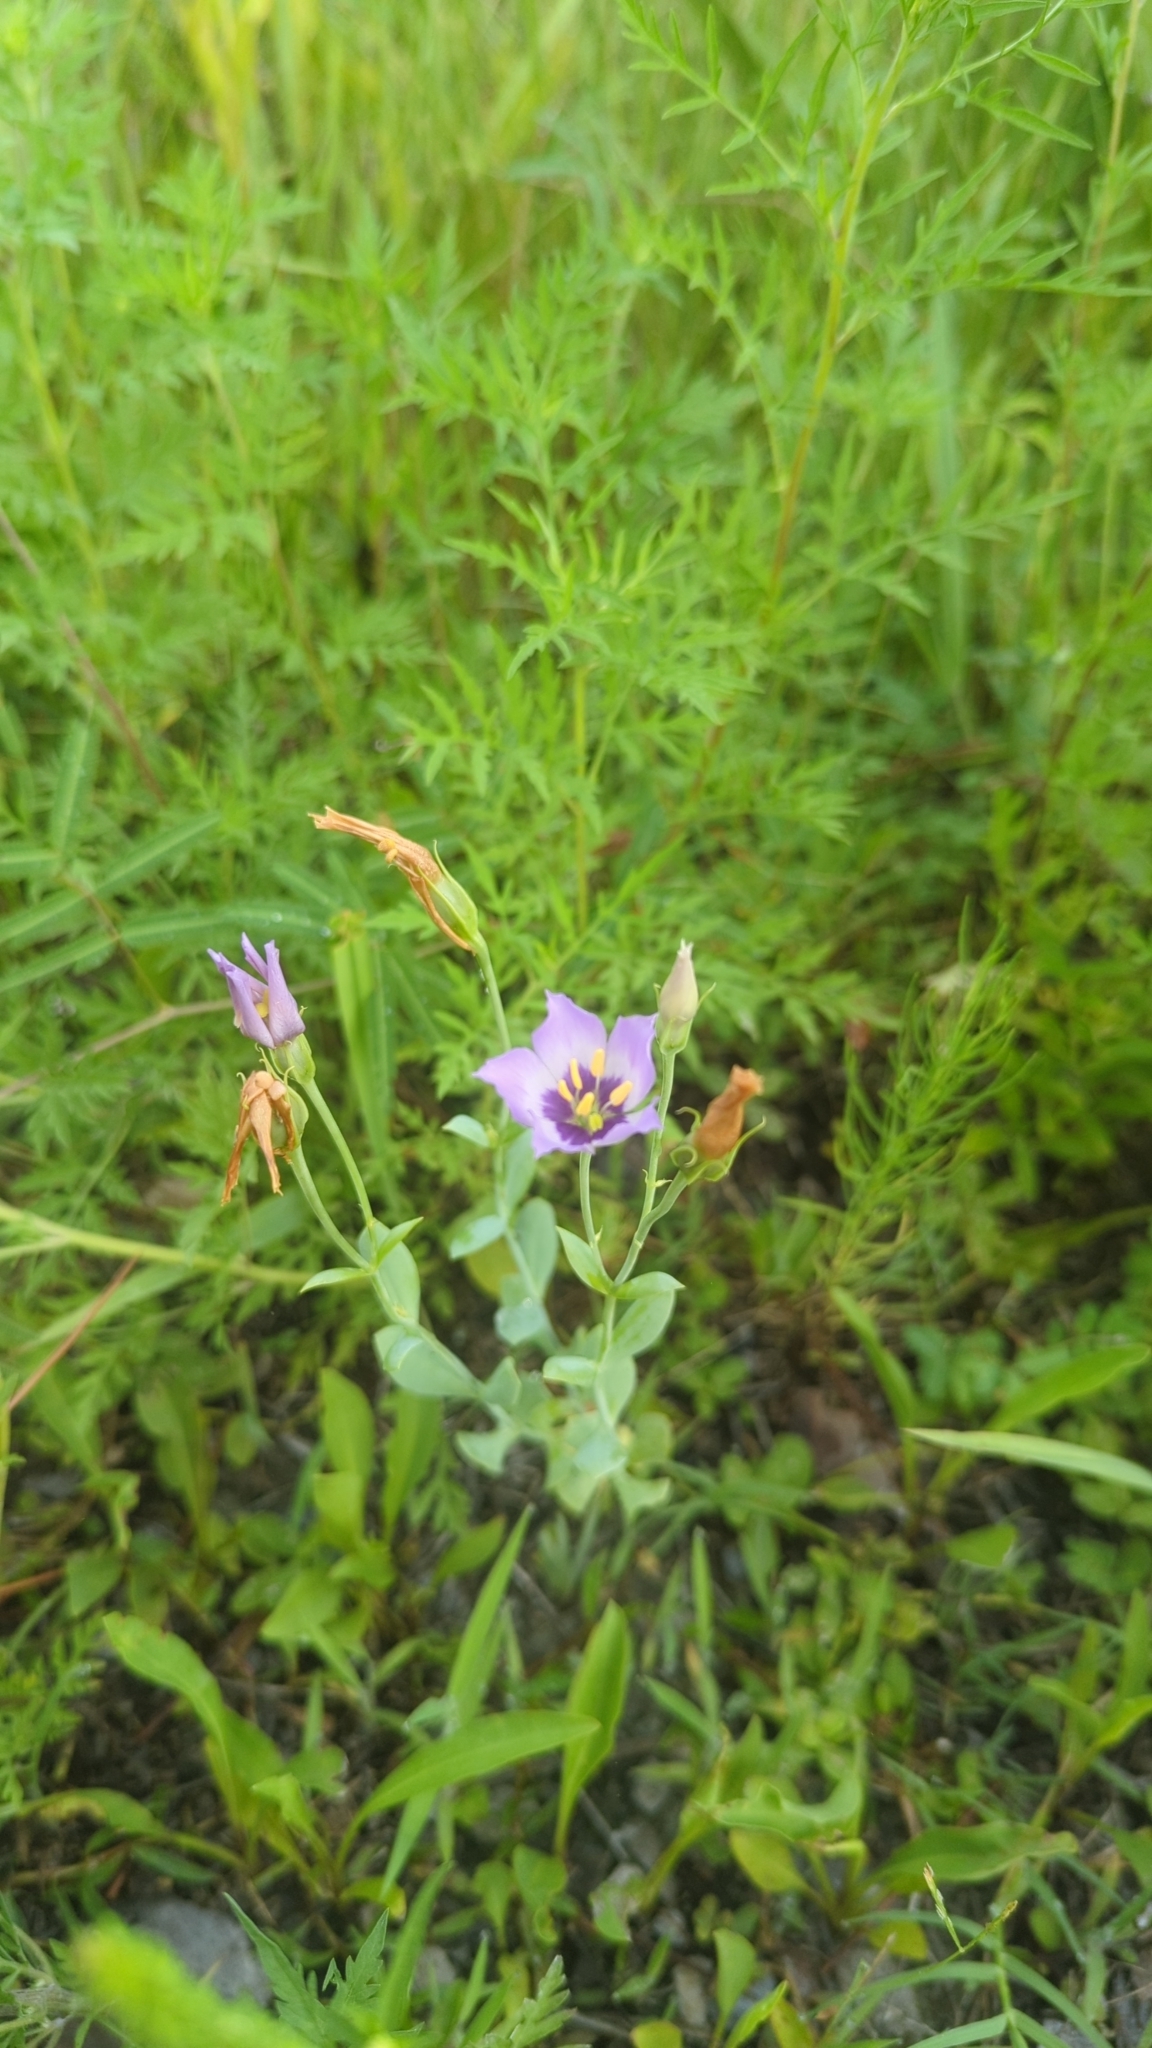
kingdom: Plantae
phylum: Tracheophyta
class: Magnoliopsida
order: Gentianales
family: Gentianaceae
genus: Eustoma
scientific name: Eustoma exaltatum
